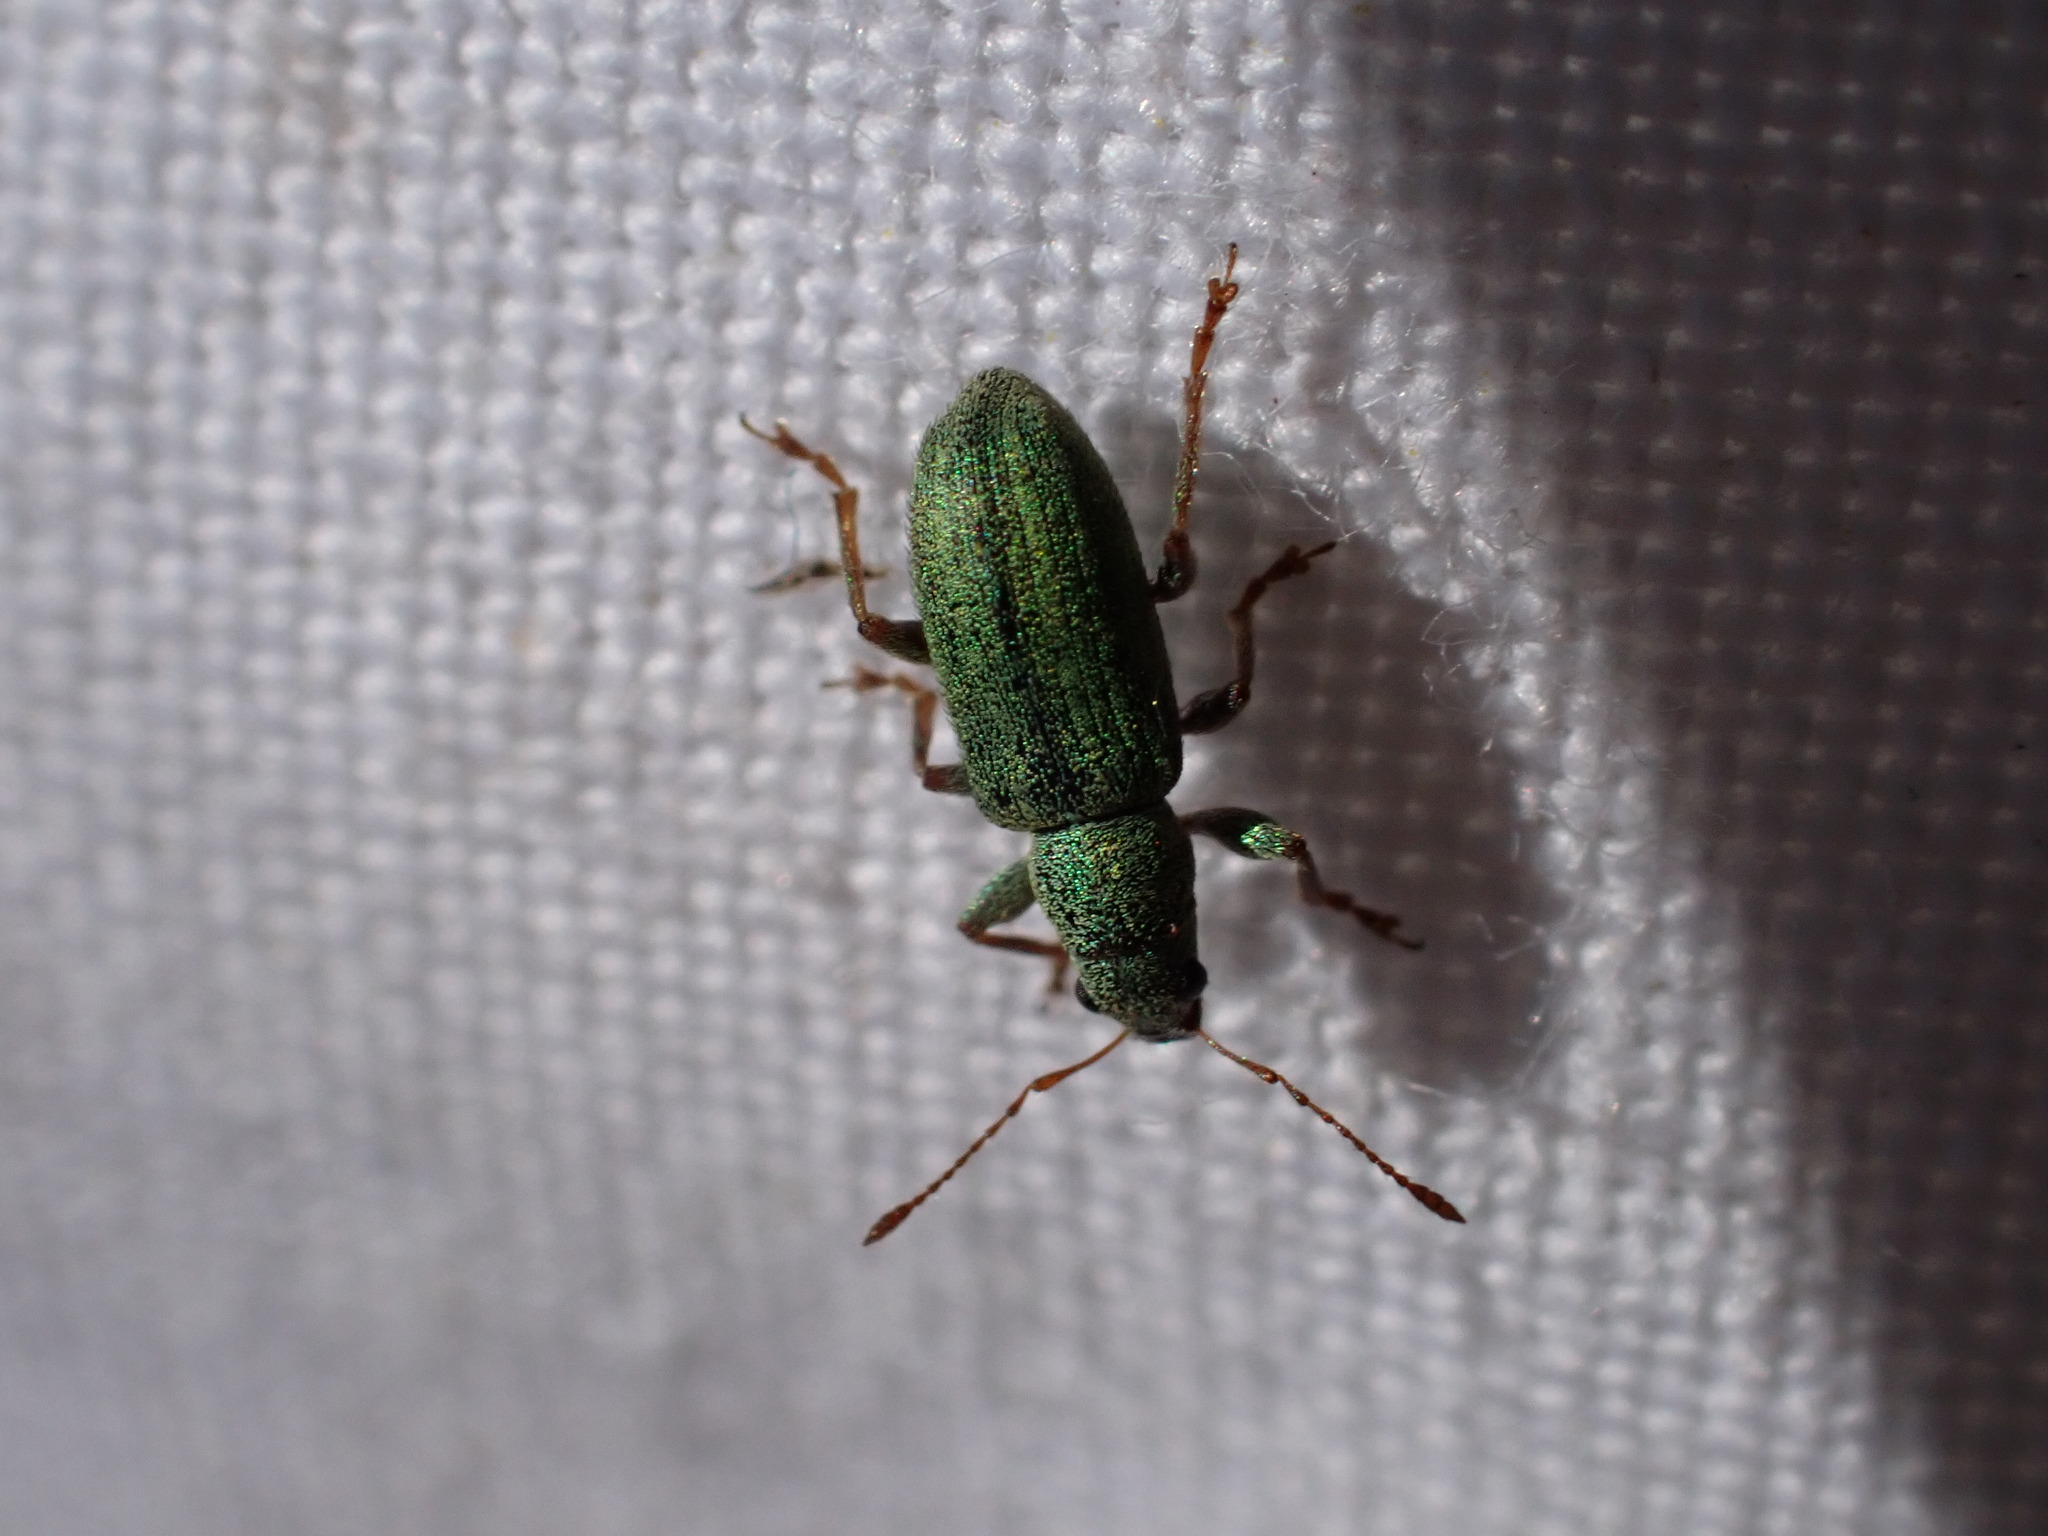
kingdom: Animalia
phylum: Arthropoda
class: Insecta
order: Coleoptera
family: Curculionidae
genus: Pachyrhinus
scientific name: Pachyrhinus lethierryi
